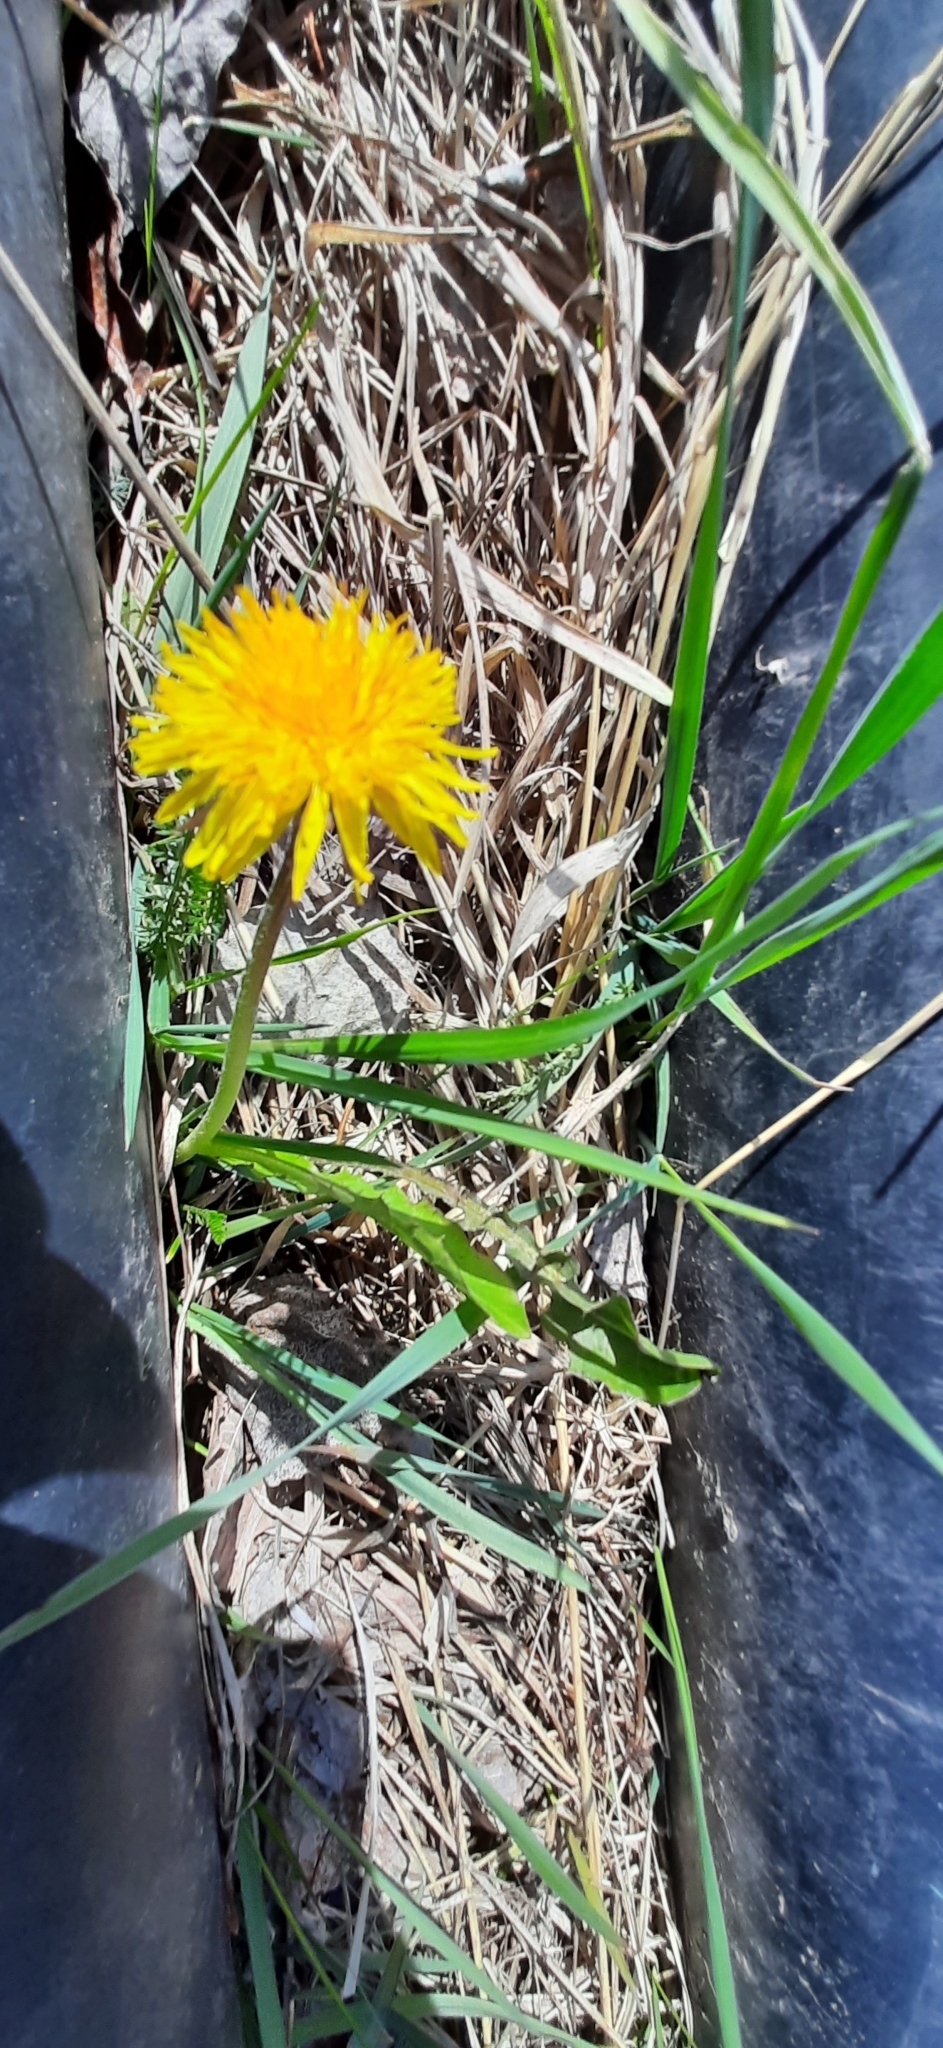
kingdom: Plantae
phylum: Tracheophyta
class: Magnoliopsida
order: Asterales
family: Asteraceae
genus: Taraxacum
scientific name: Taraxacum officinale
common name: Common dandelion
